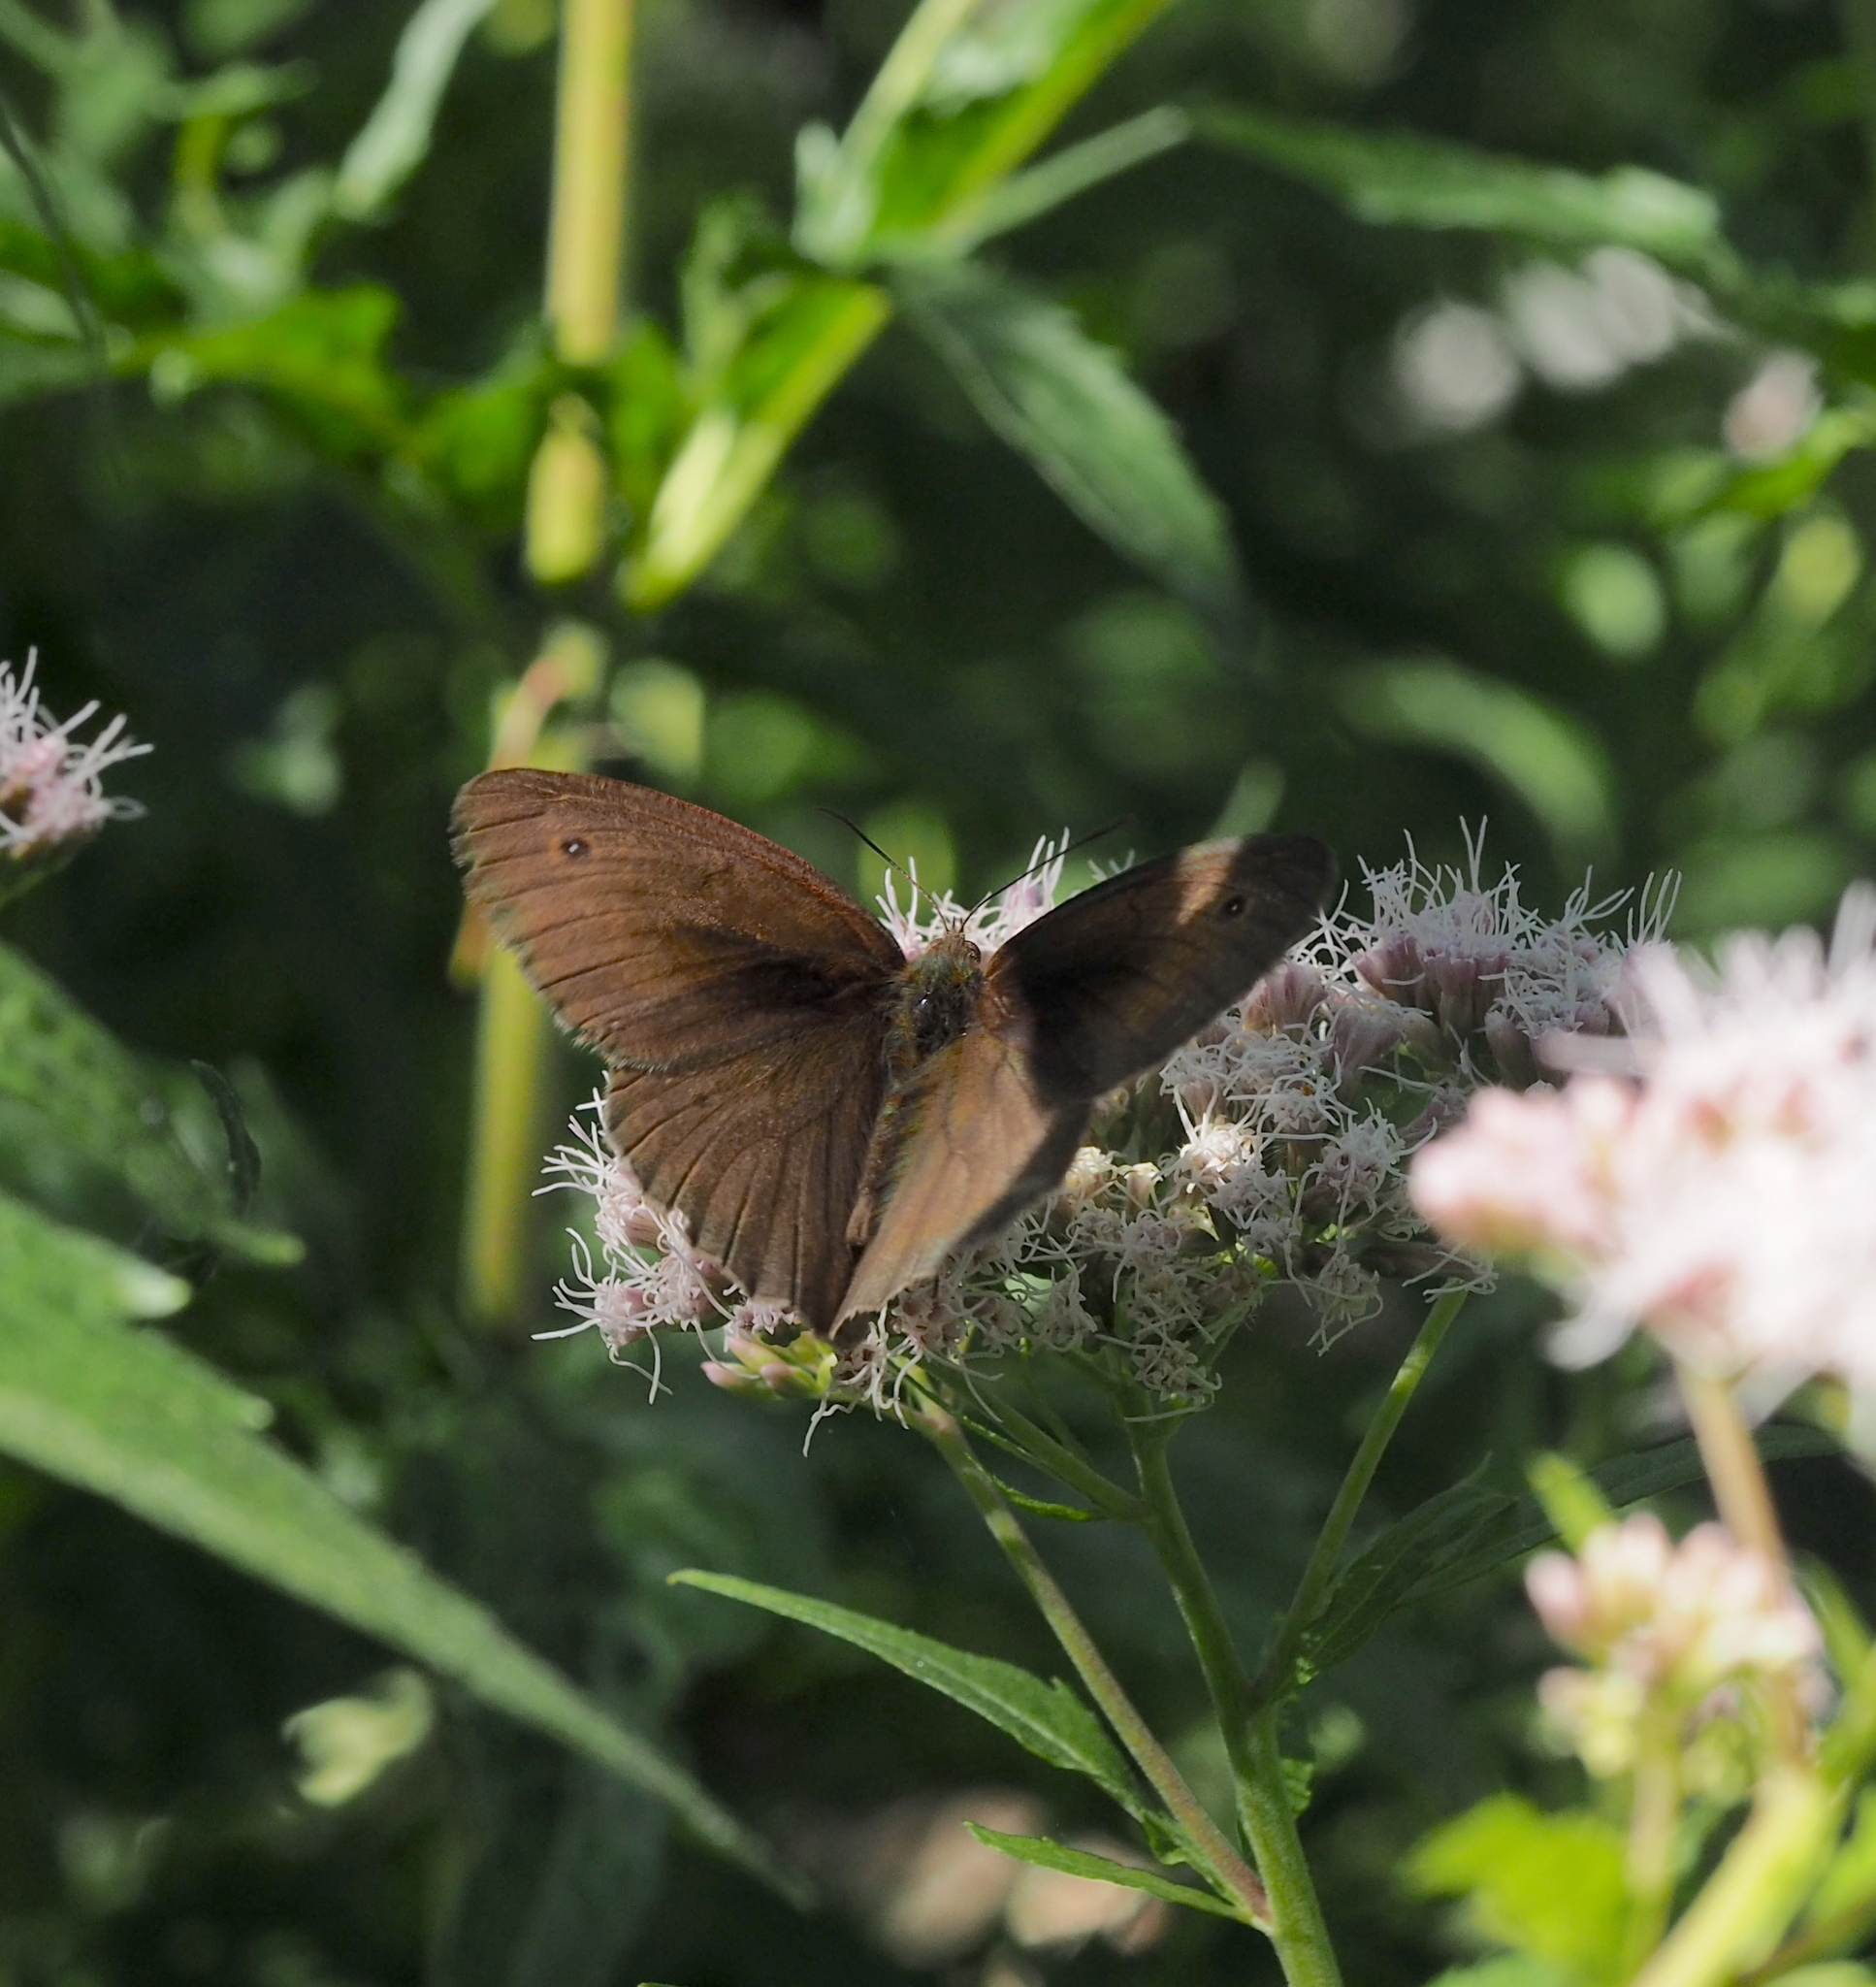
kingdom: Animalia
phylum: Arthropoda
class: Insecta
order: Lepidoptera
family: Nymphalidae
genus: Maniola
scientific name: Maniola jurtina
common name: Meadow brown
